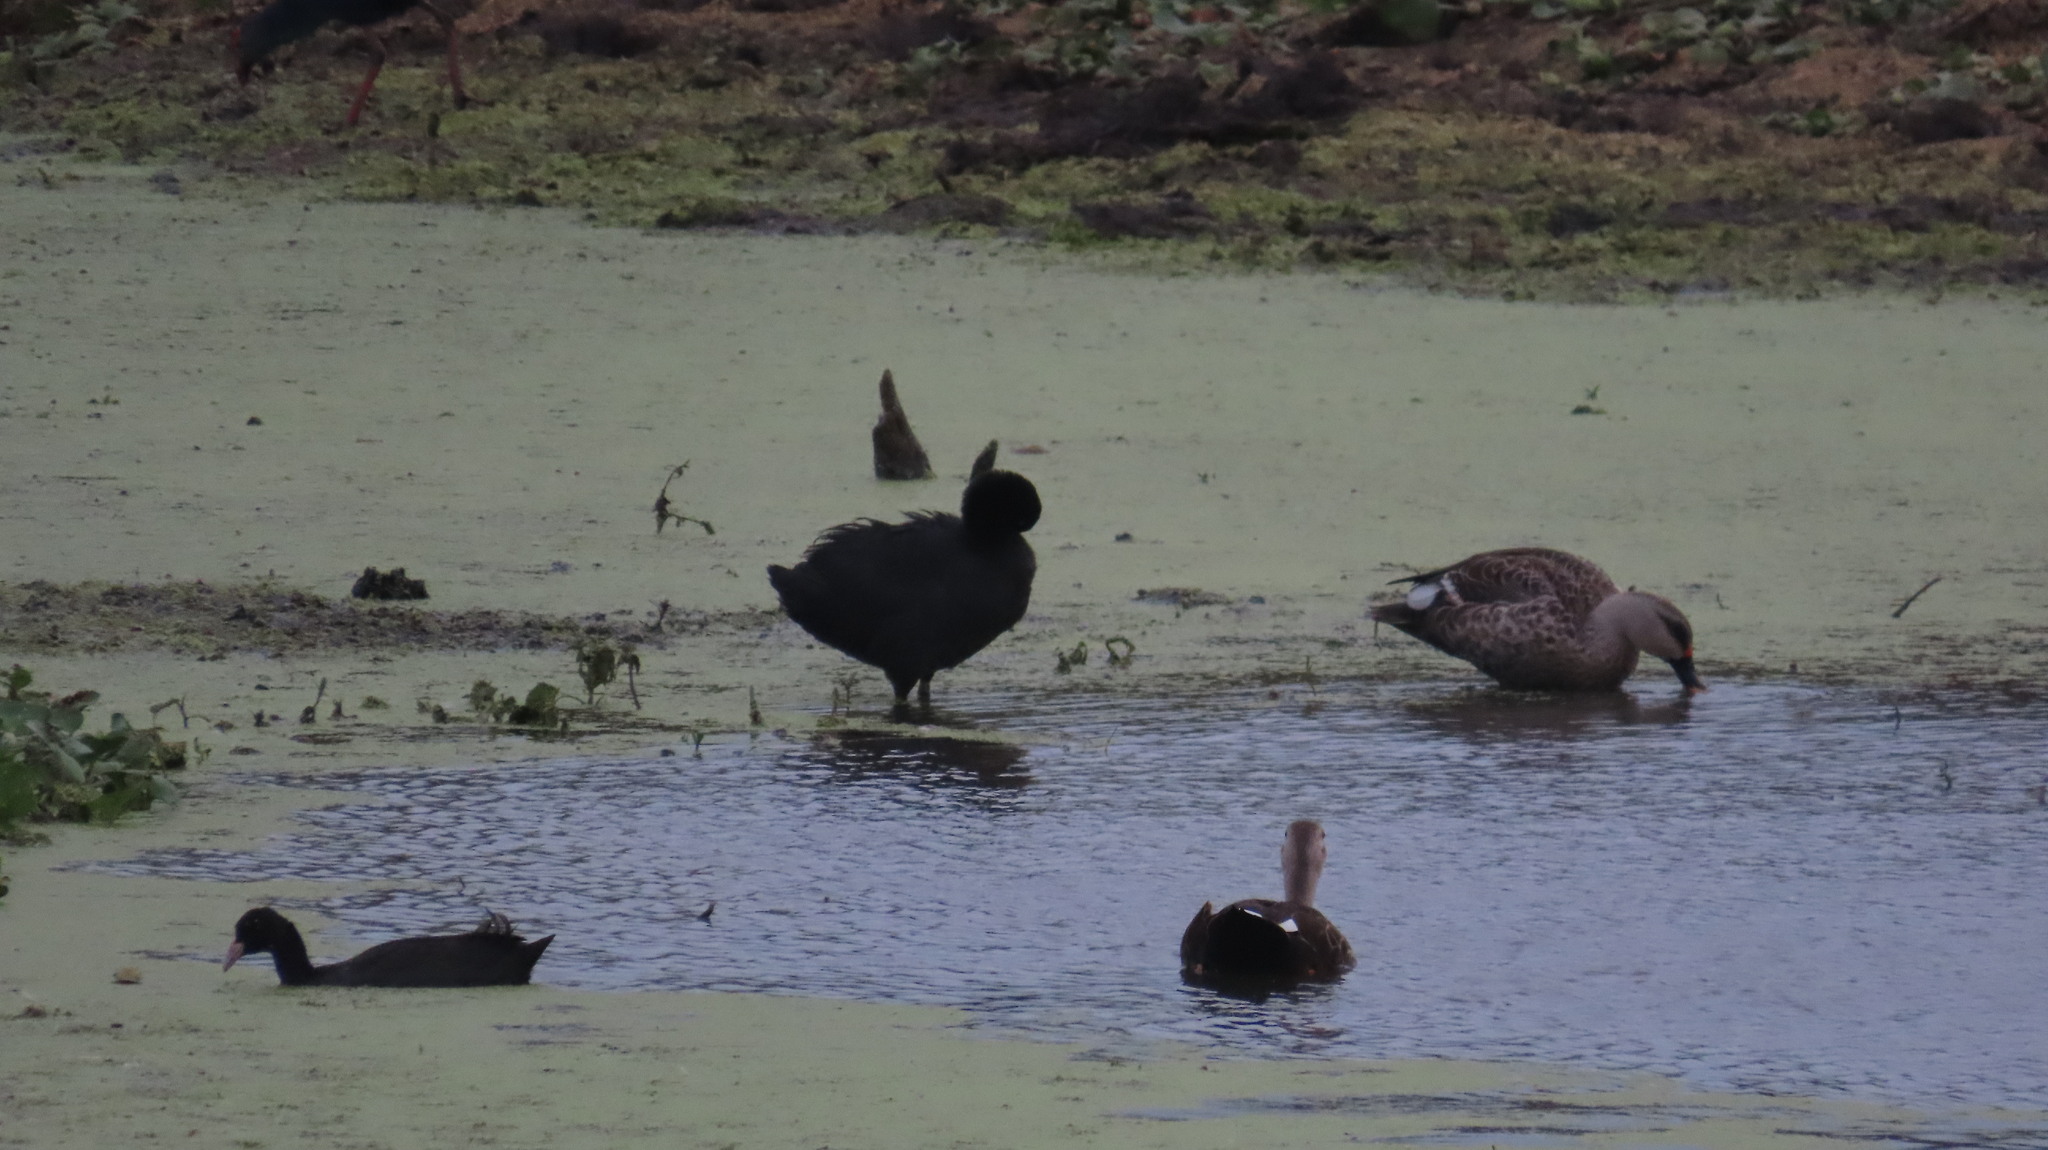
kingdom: Animalia
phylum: Chordata
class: Aves
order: Anseriformes
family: Anatidae
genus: Anas
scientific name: Anas poecilorhyncha
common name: Indian spot-billed duck
